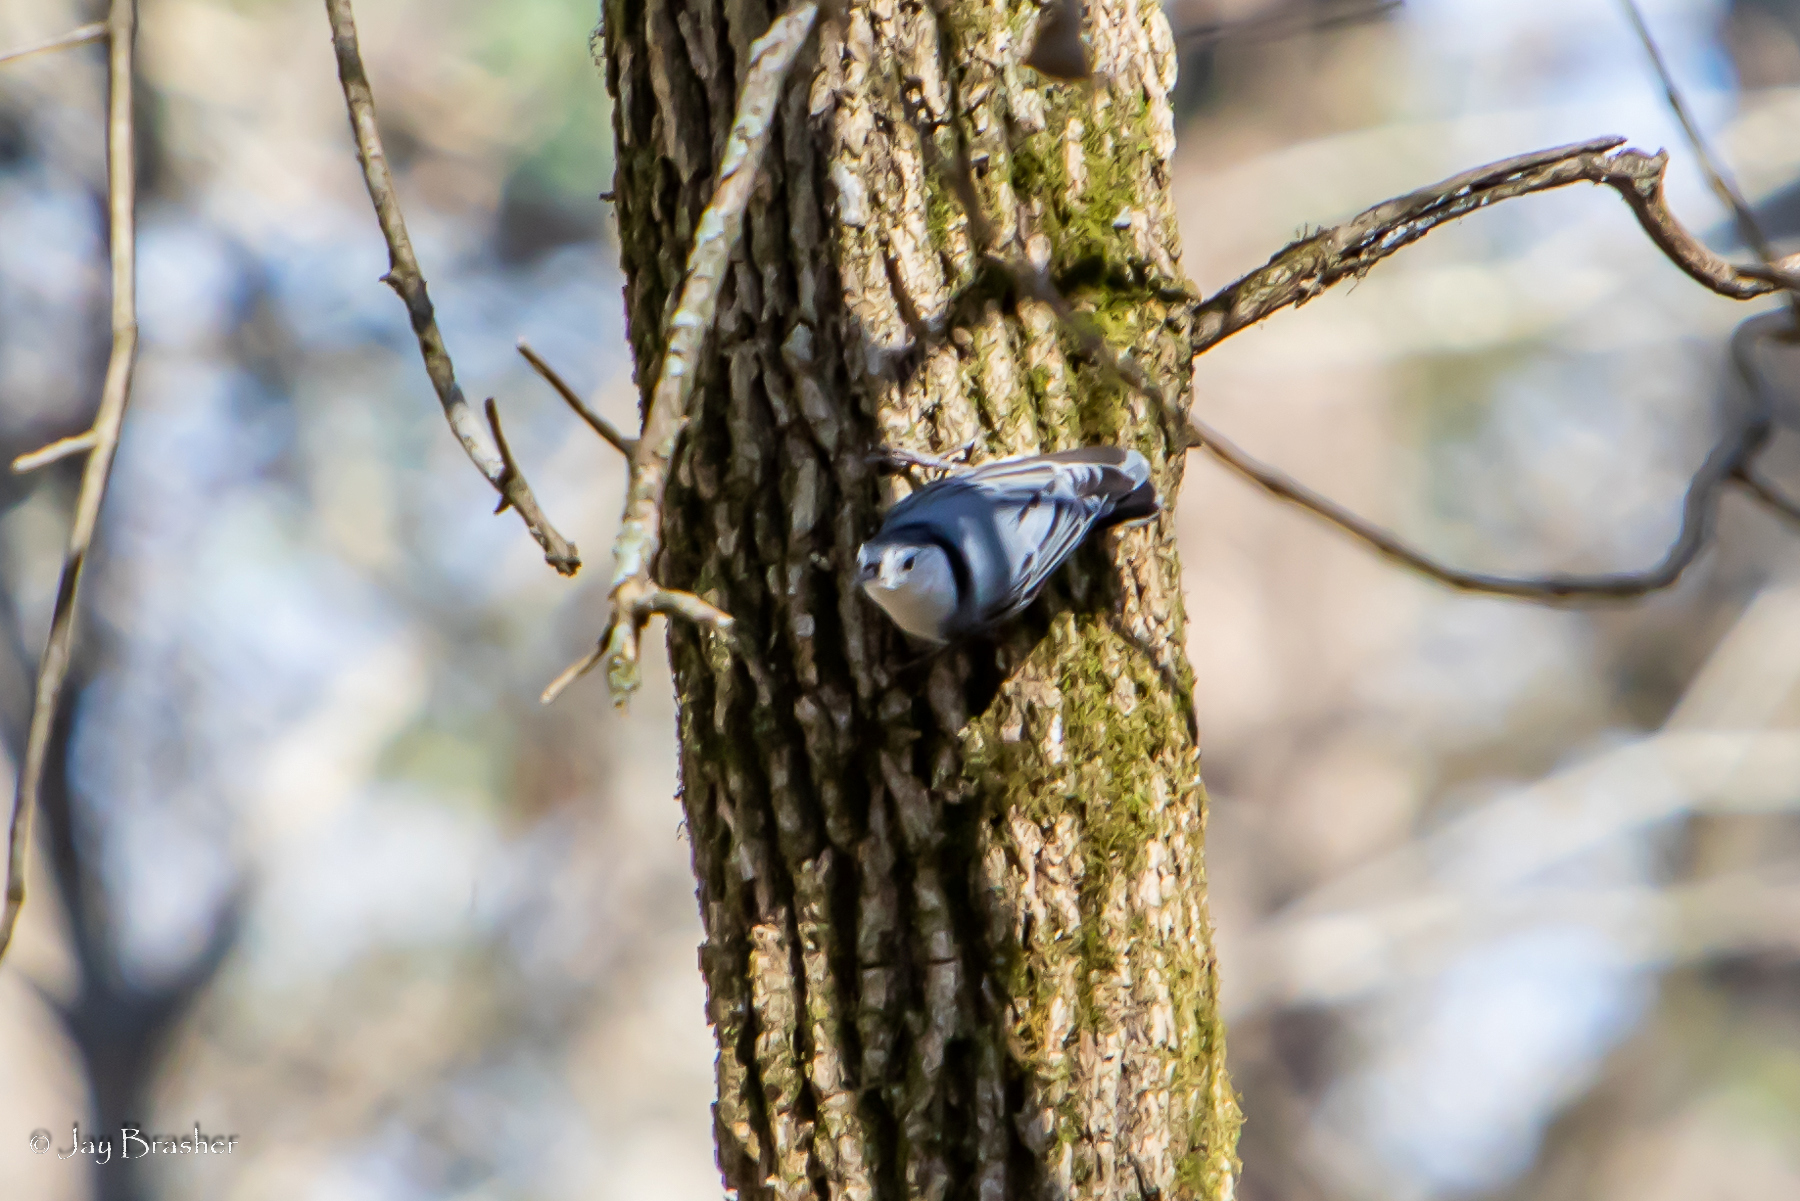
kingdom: Animalia
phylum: Chordata
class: Aves
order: Passeriformes
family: Sittidae
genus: Sitta
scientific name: Sitta carolinensis
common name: White-breasted nuthatch
